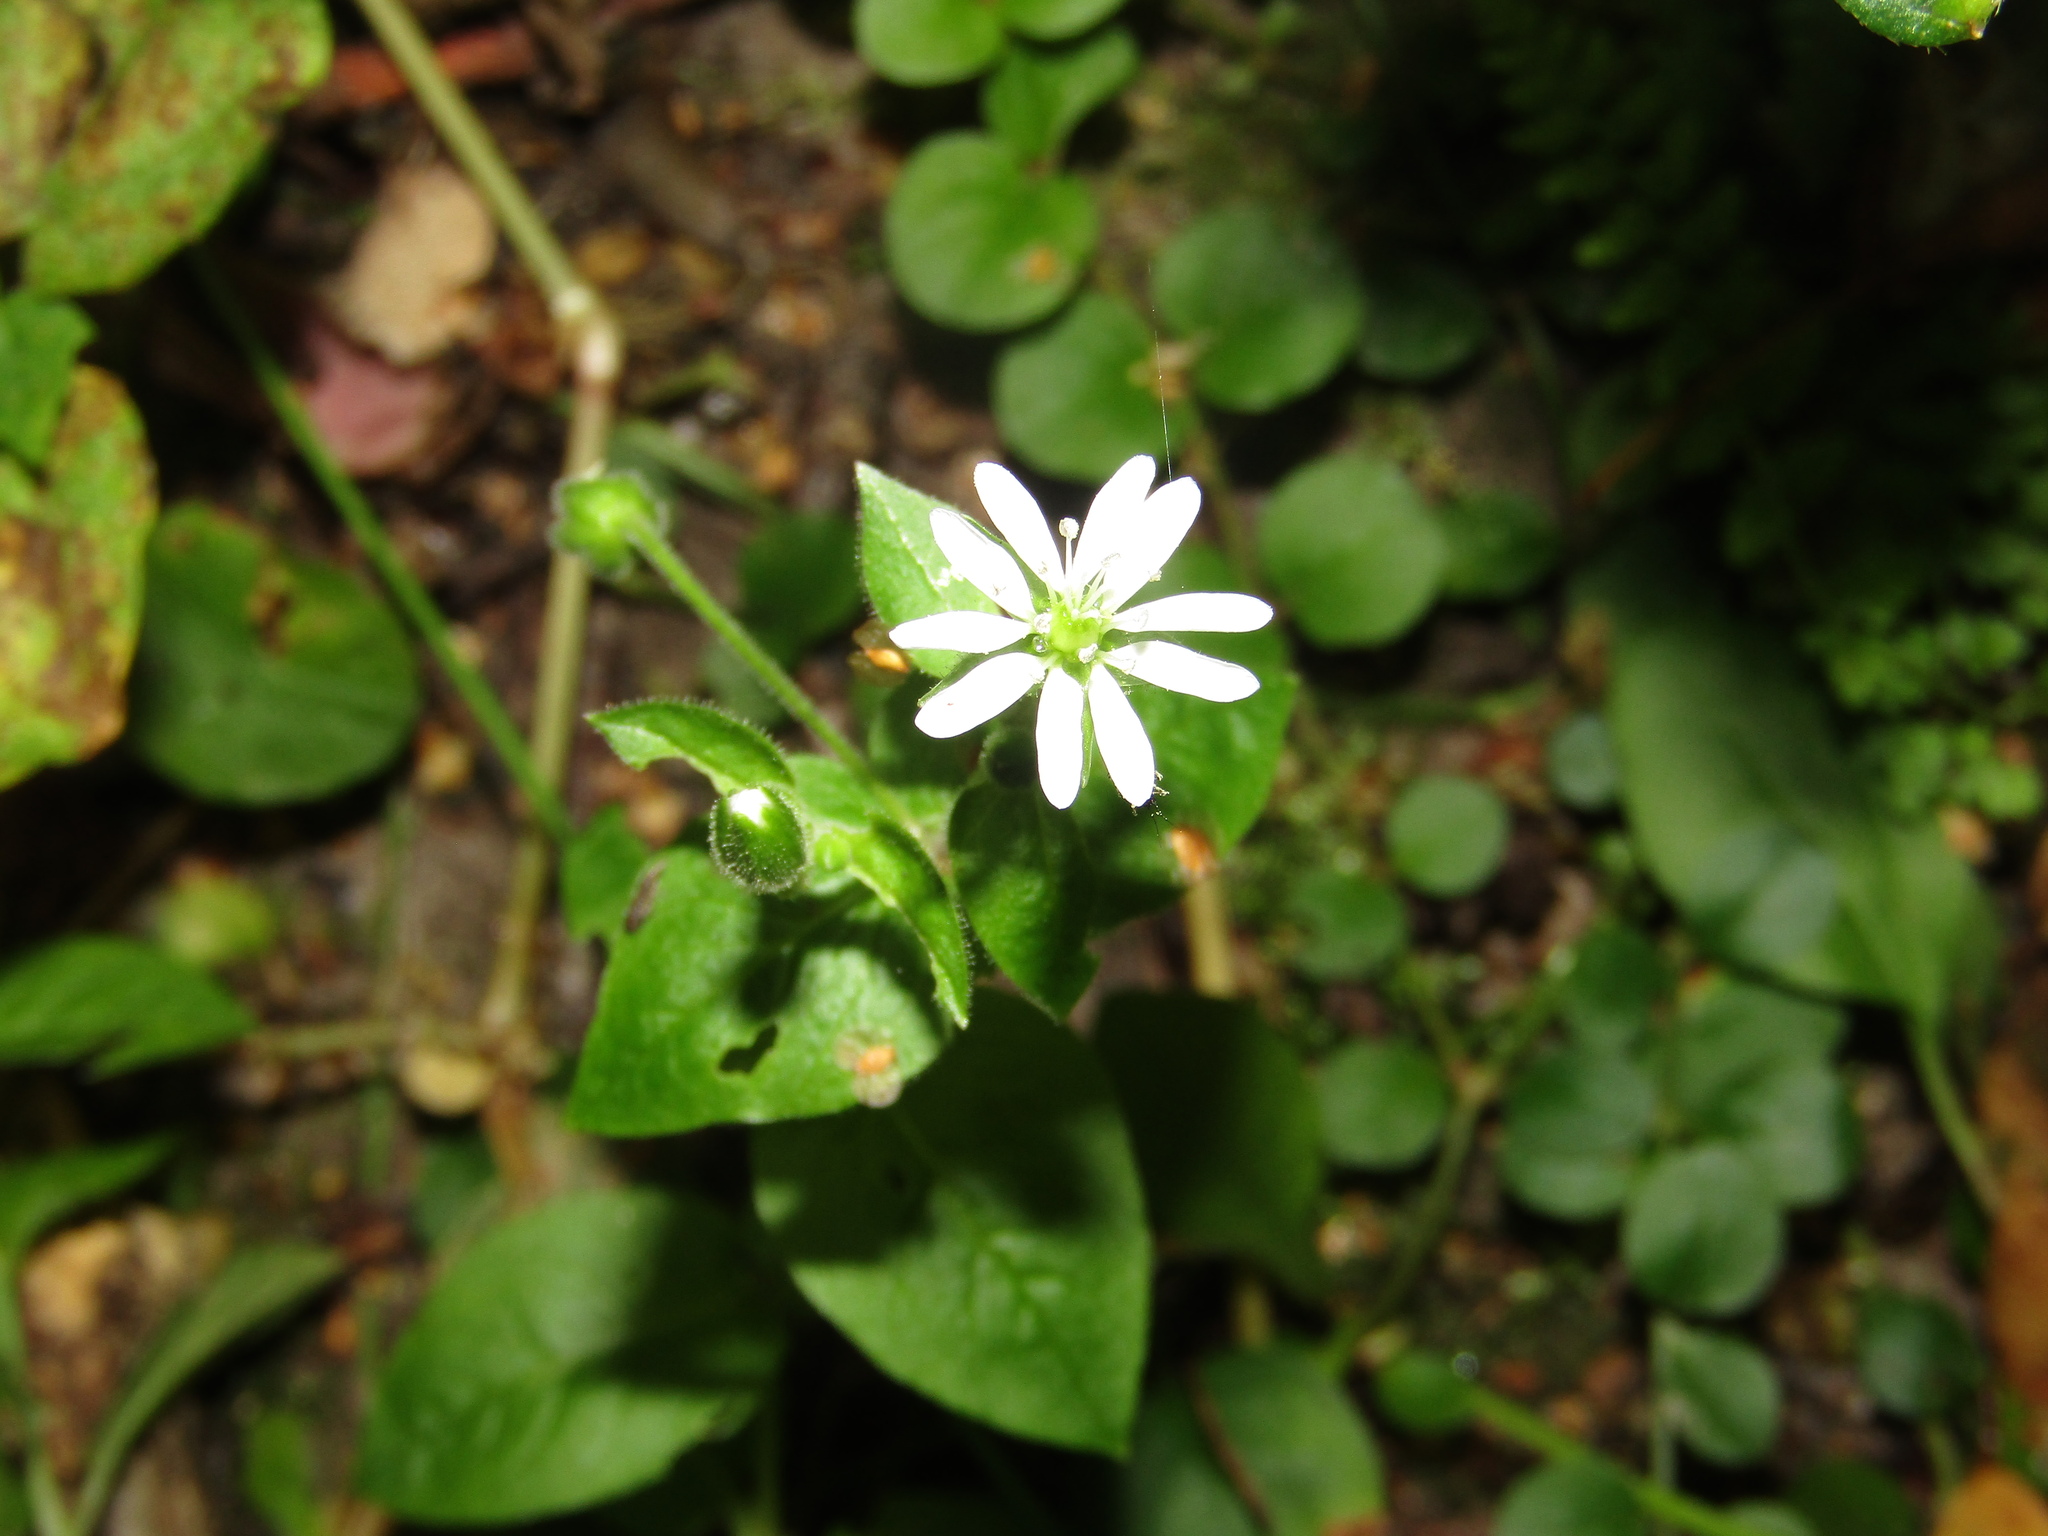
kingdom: Plantae
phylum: Tracheophyta
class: Magnoliopsida
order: Caryophyllales
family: Caryophyllaceae
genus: Stellaria
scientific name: Stellaria aquatica
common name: Water chickweed
